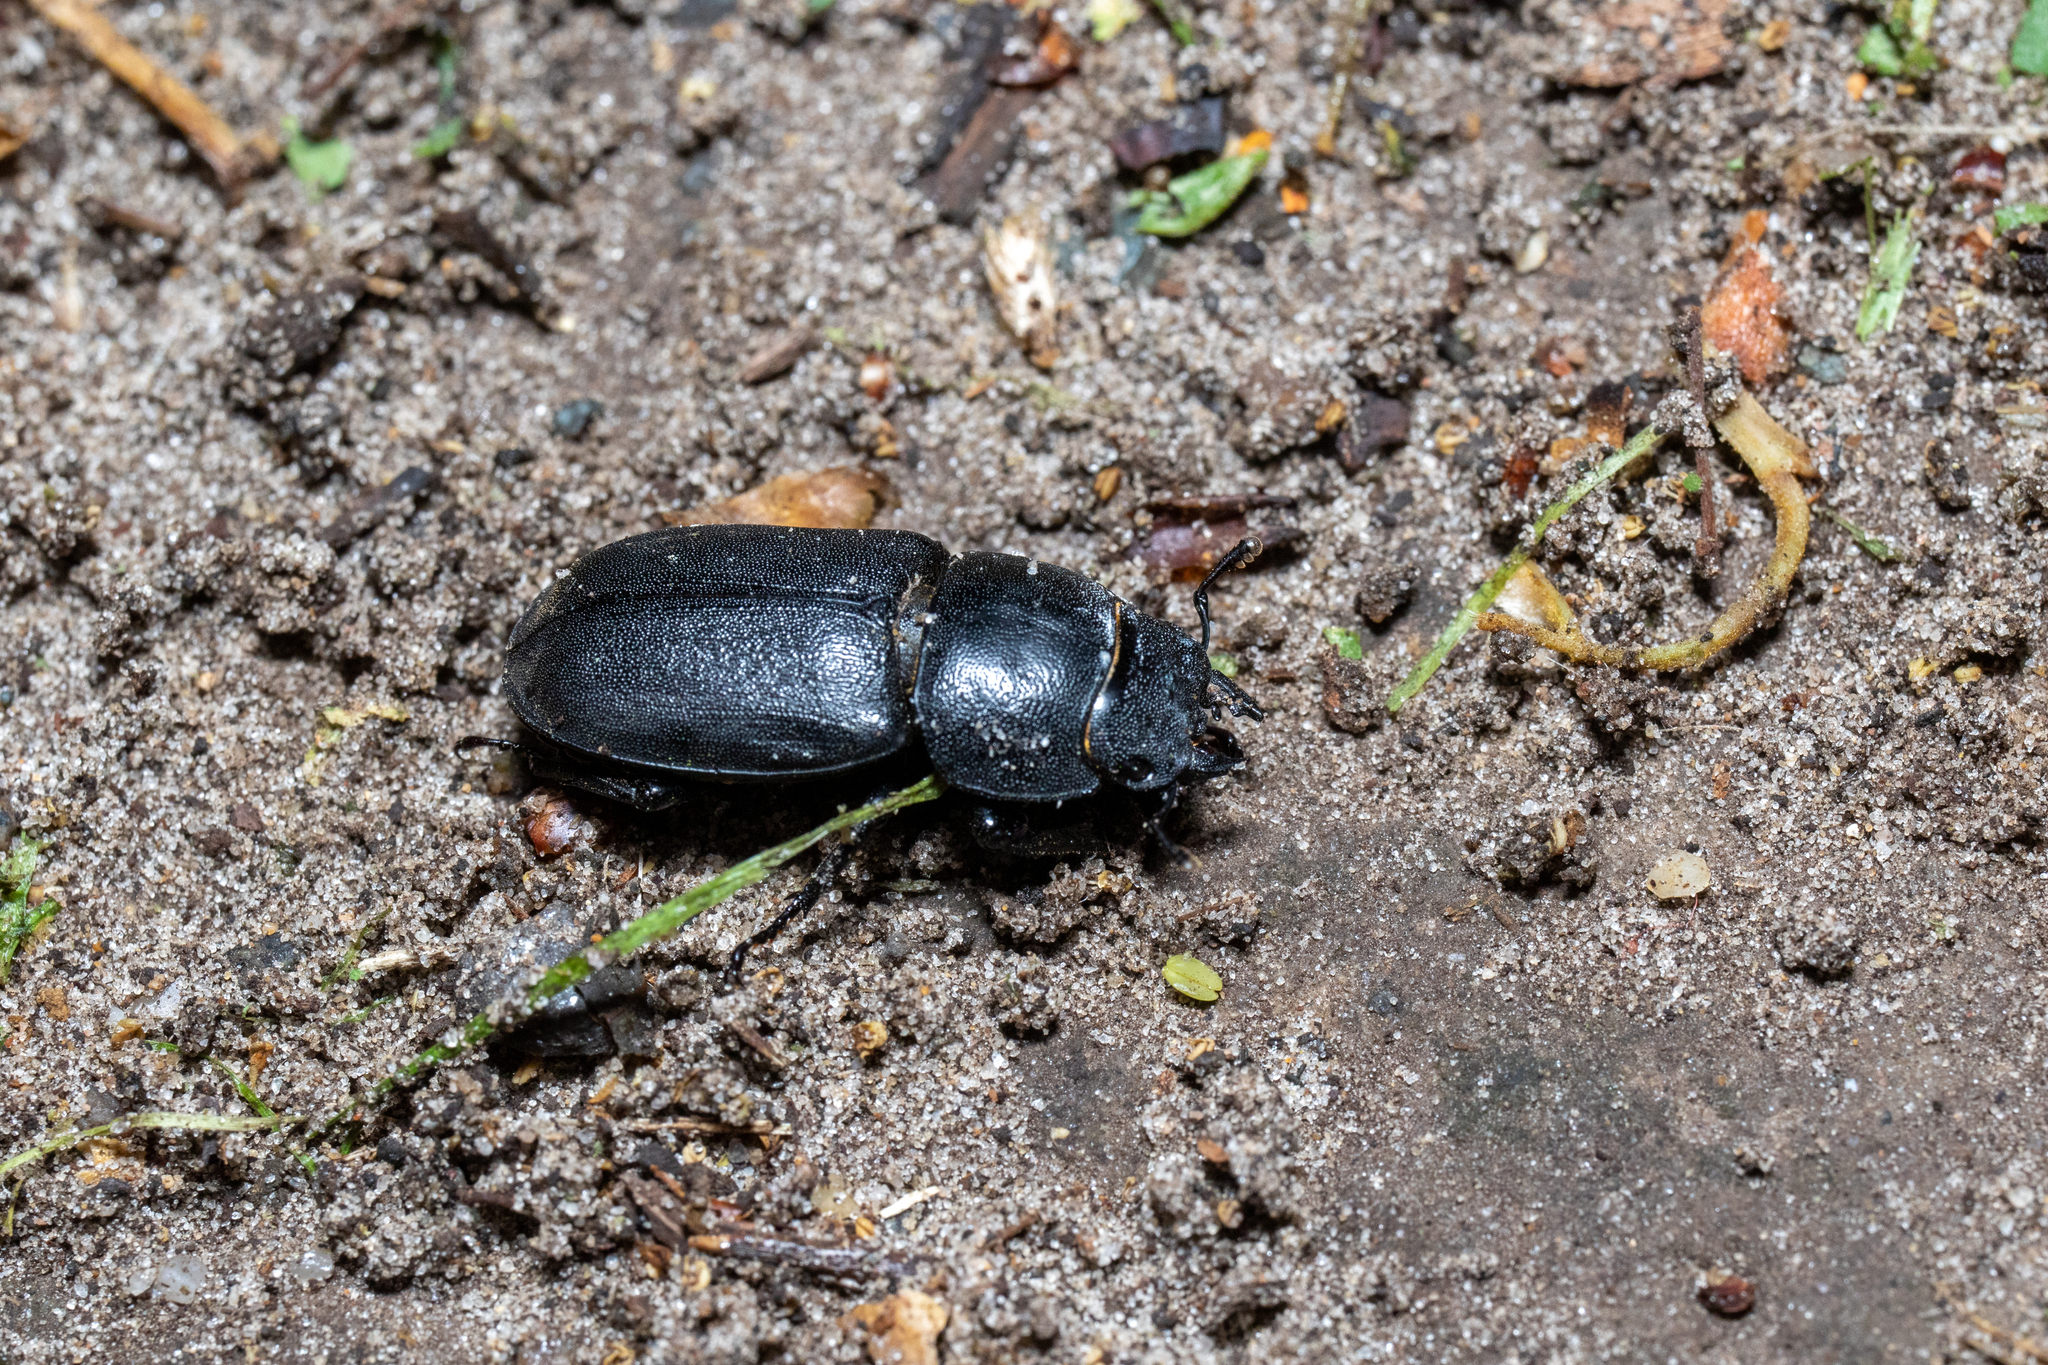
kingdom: Animalia
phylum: Arthropoda
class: Insecta
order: Coleoptera
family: Lucanidae
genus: Dorcus
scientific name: Dorcus parallelipipedus
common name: Lesser stag beetle
